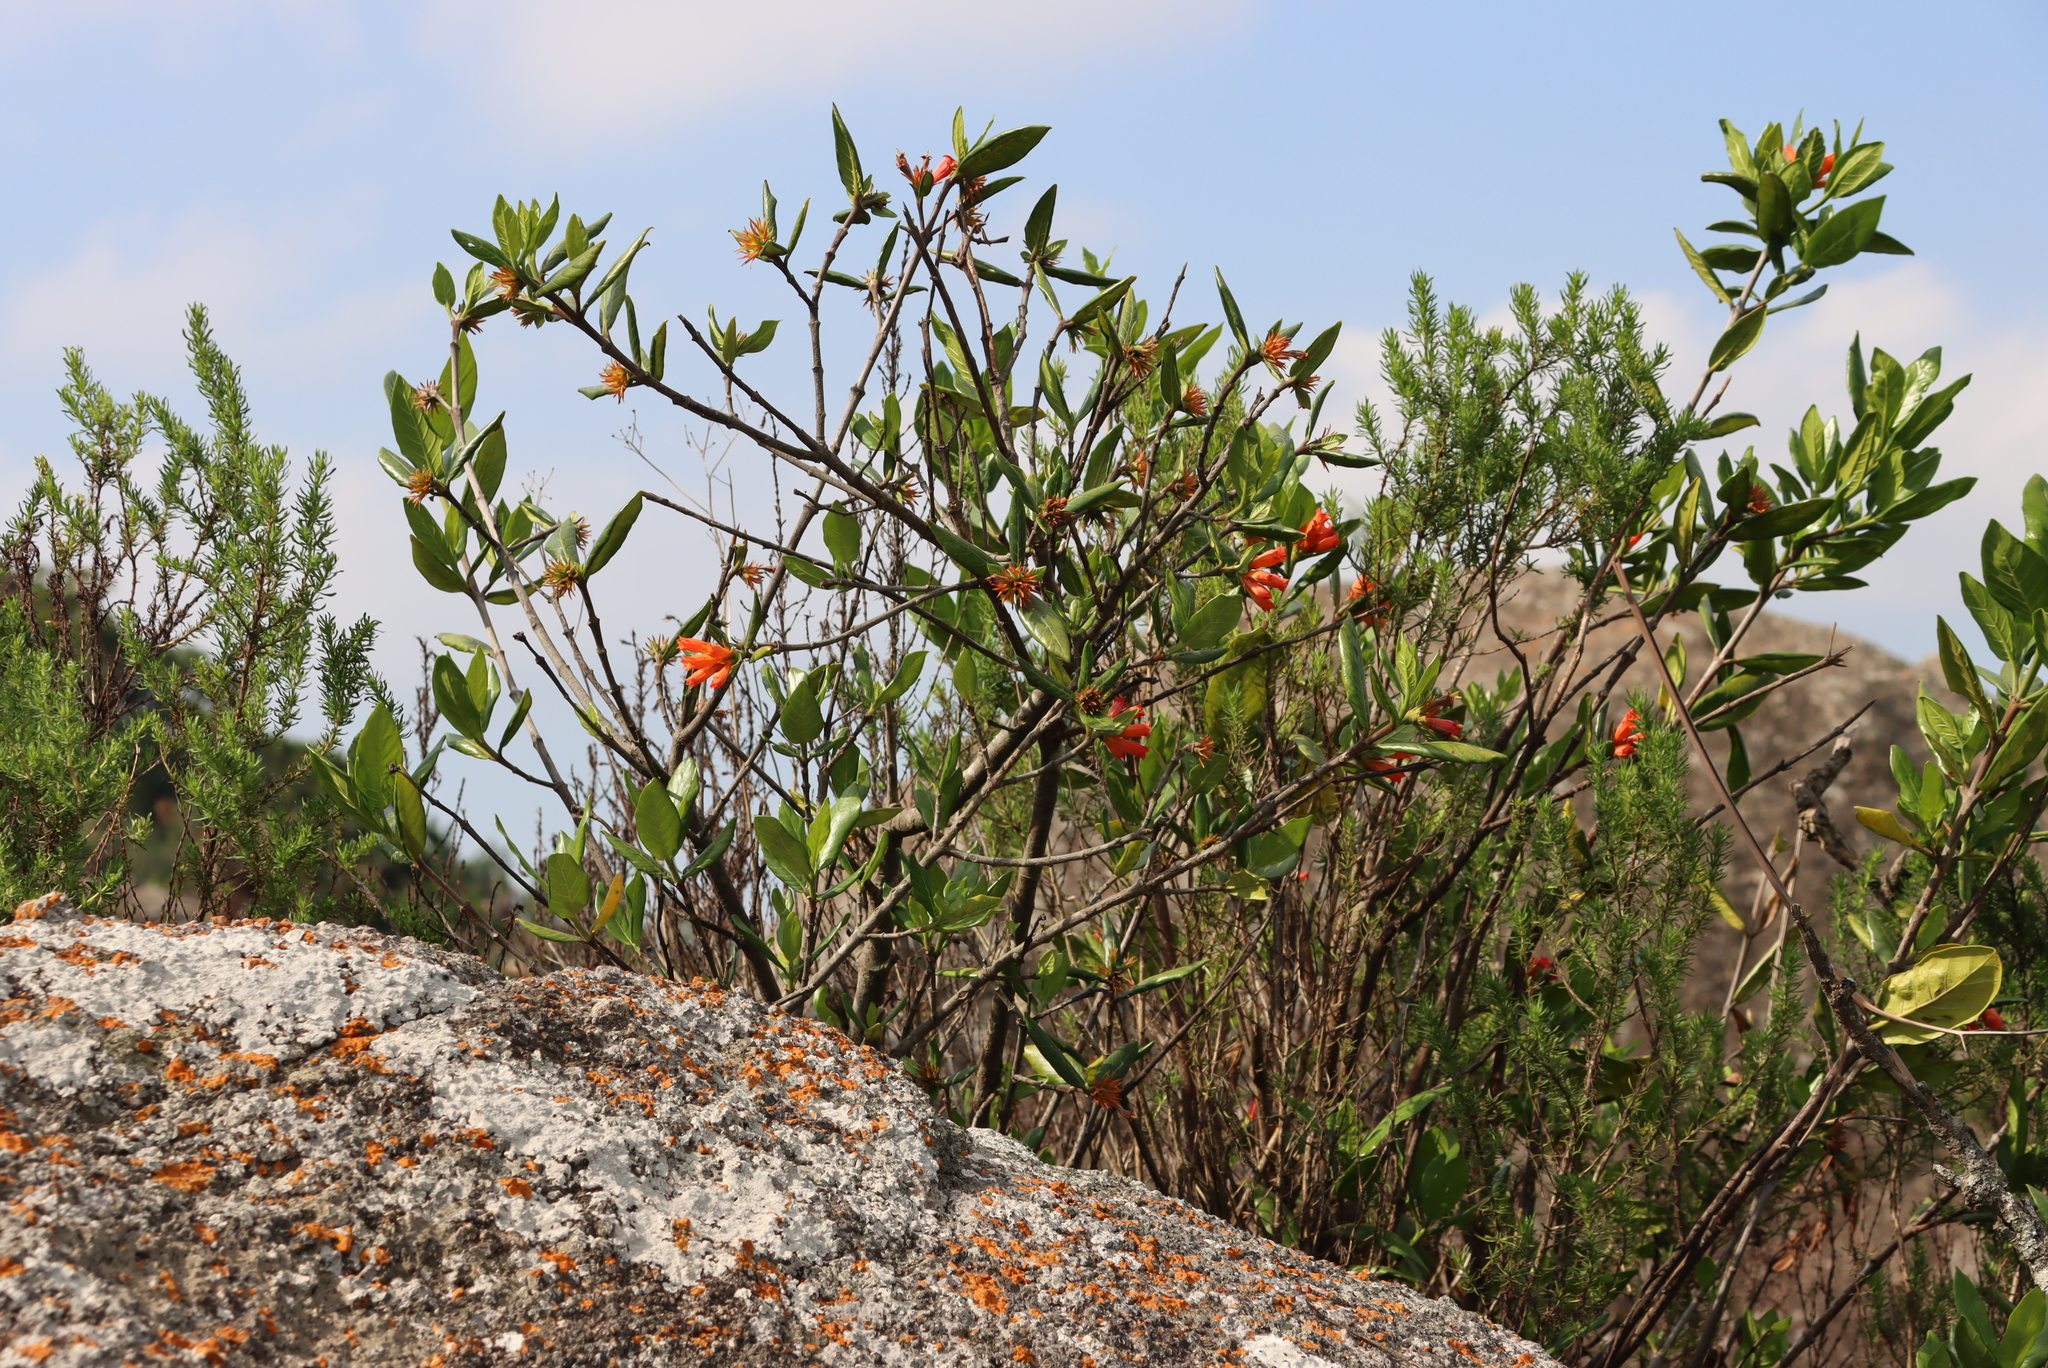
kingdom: Plantae
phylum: Tracheophyta
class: Magnoliopsida
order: Gentianales
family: Rubiaceae
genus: Burchellia
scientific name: Burchellia bubalina
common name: Wild pomegranate
